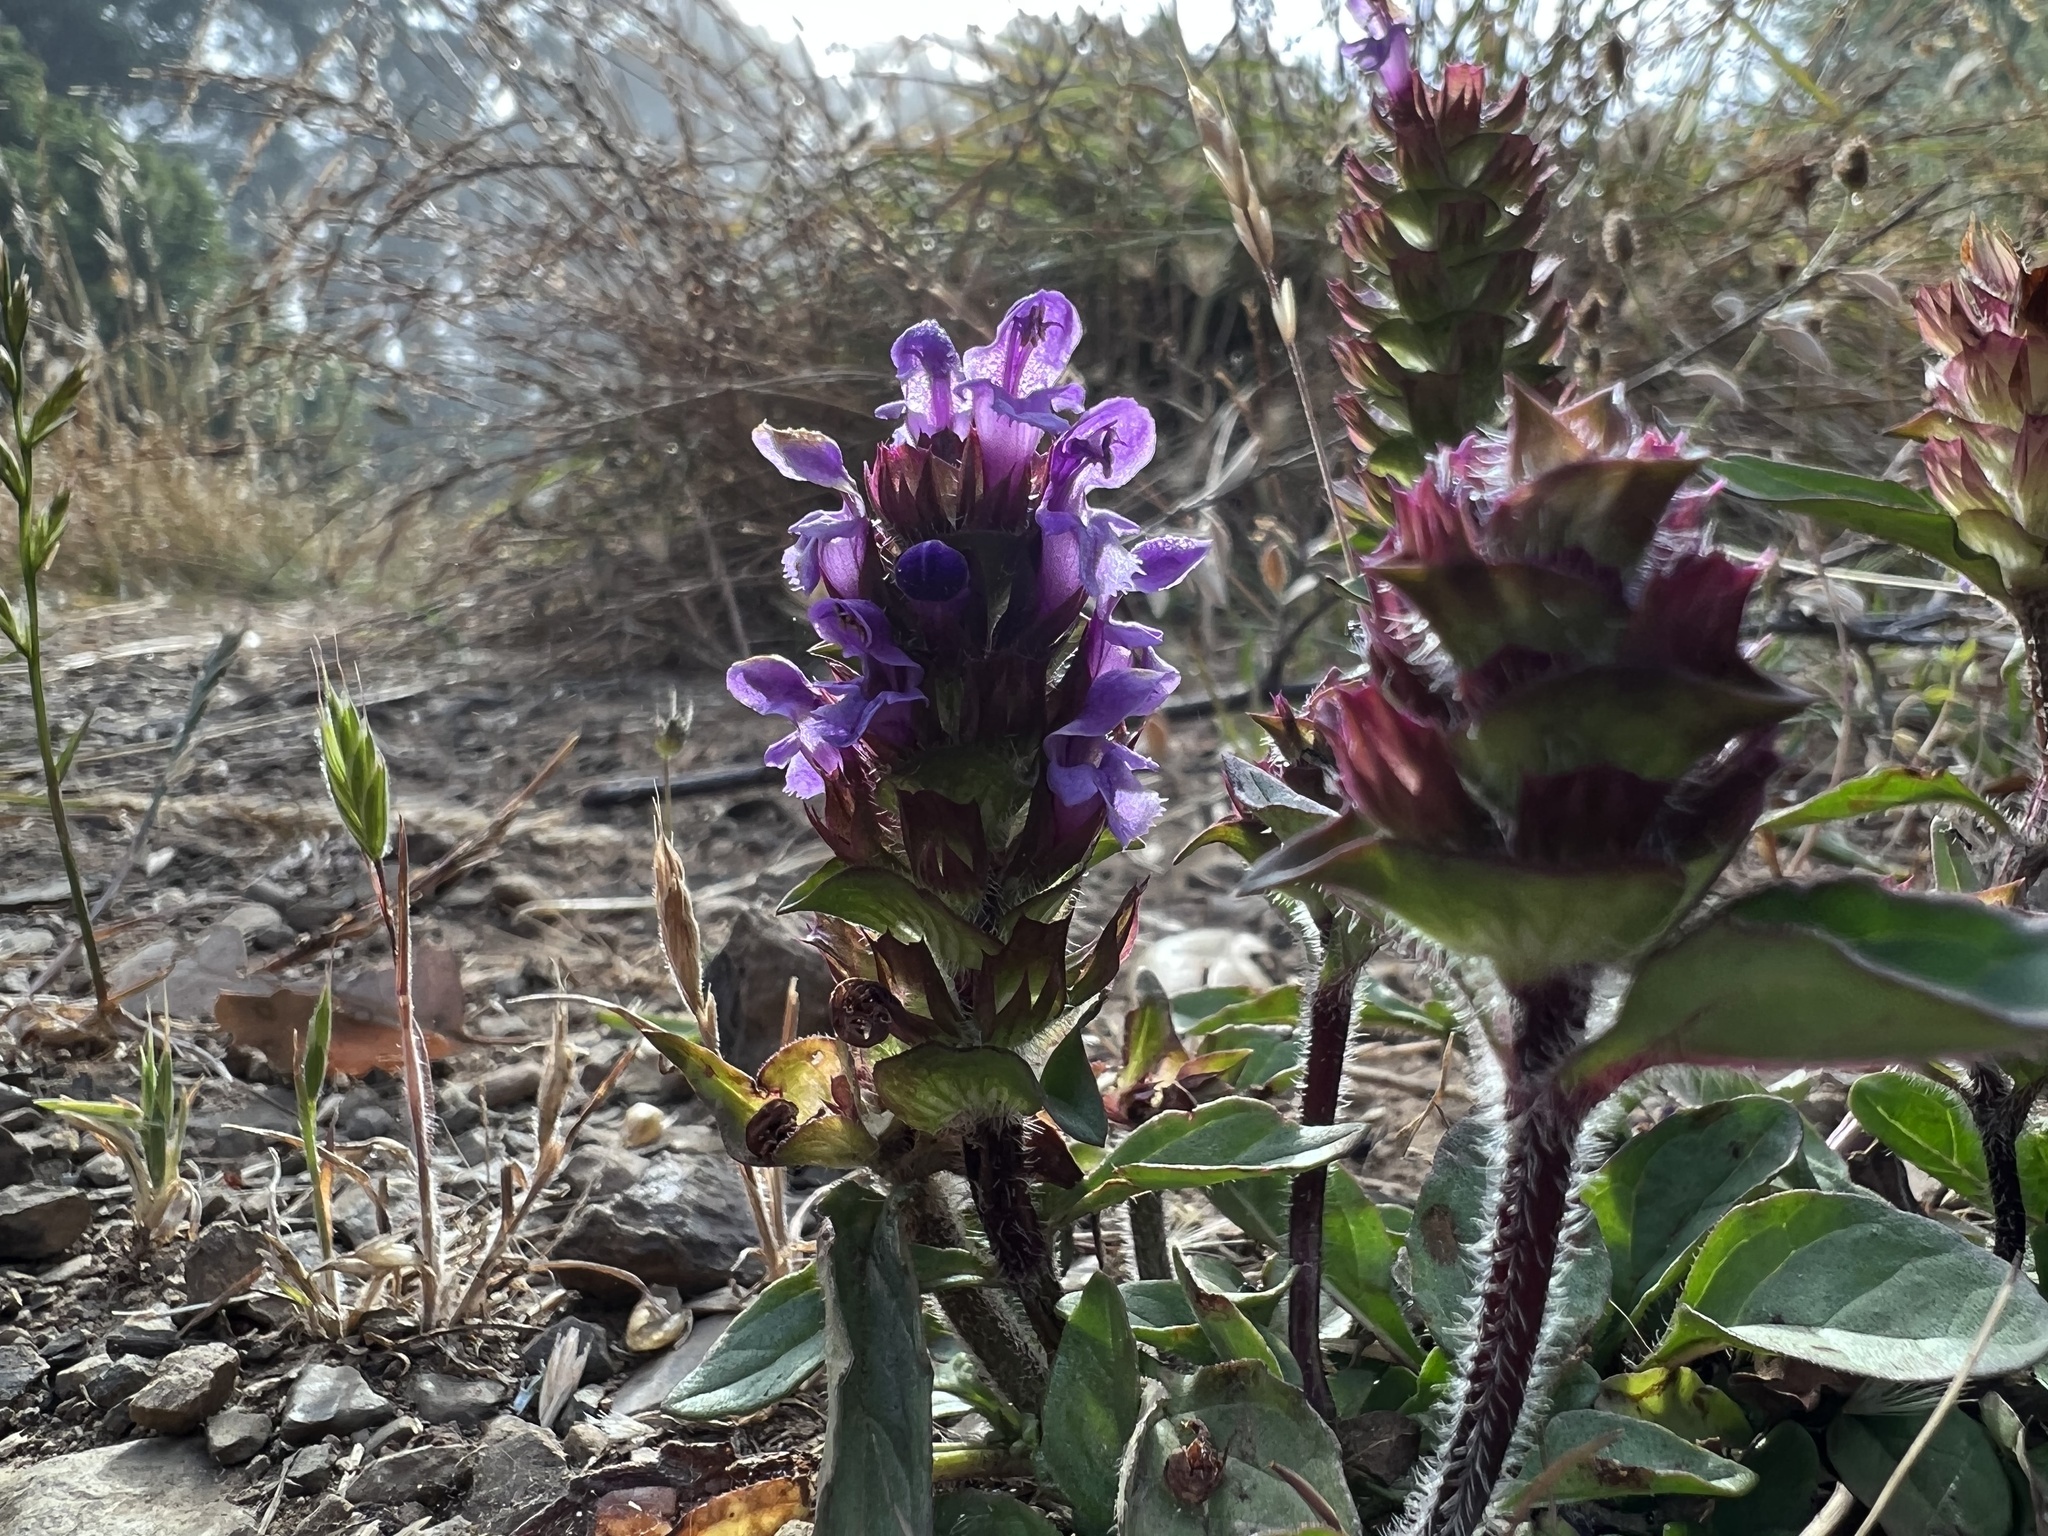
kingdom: Plantae
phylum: Tracheophyta
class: Magnoliopsida
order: Lamiales
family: Lamiaceae
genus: Prunella
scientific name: Prunella vulgaris
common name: Heal-all
